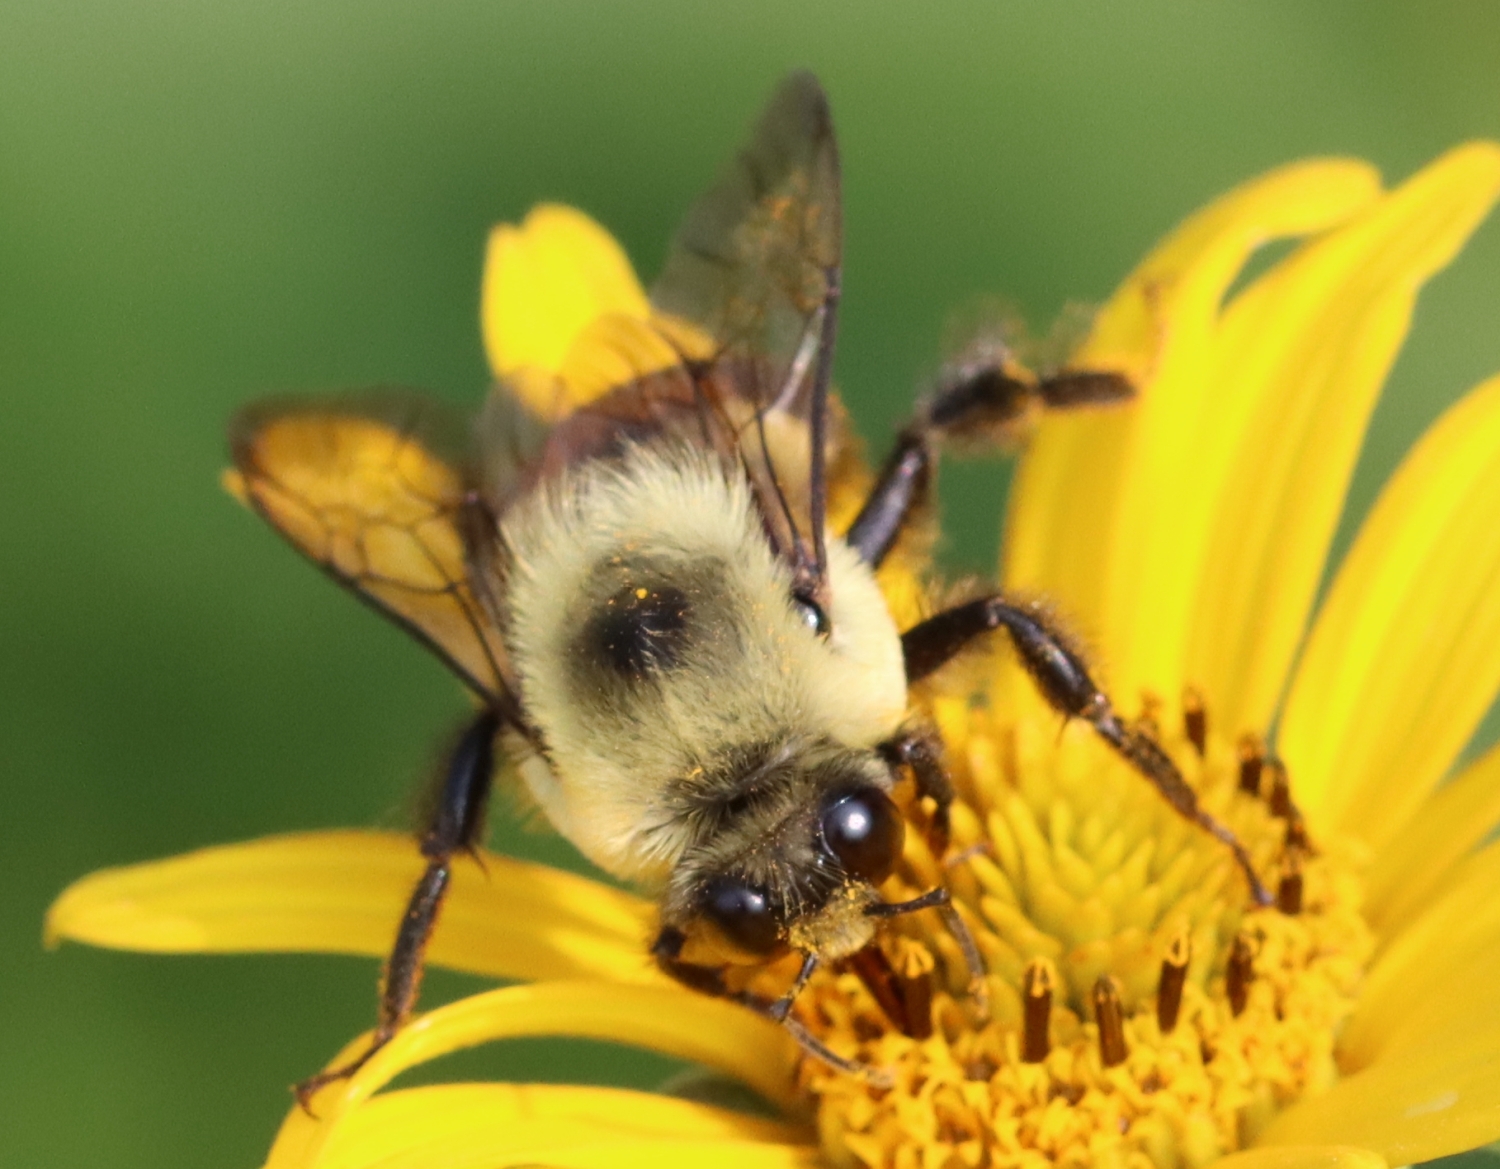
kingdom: Animalia
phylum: Arthropoda
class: Insecta
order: Hymenoptera
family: Apidae
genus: Bombus
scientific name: Bombus griseocollis
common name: Brown-belted bumble bee
